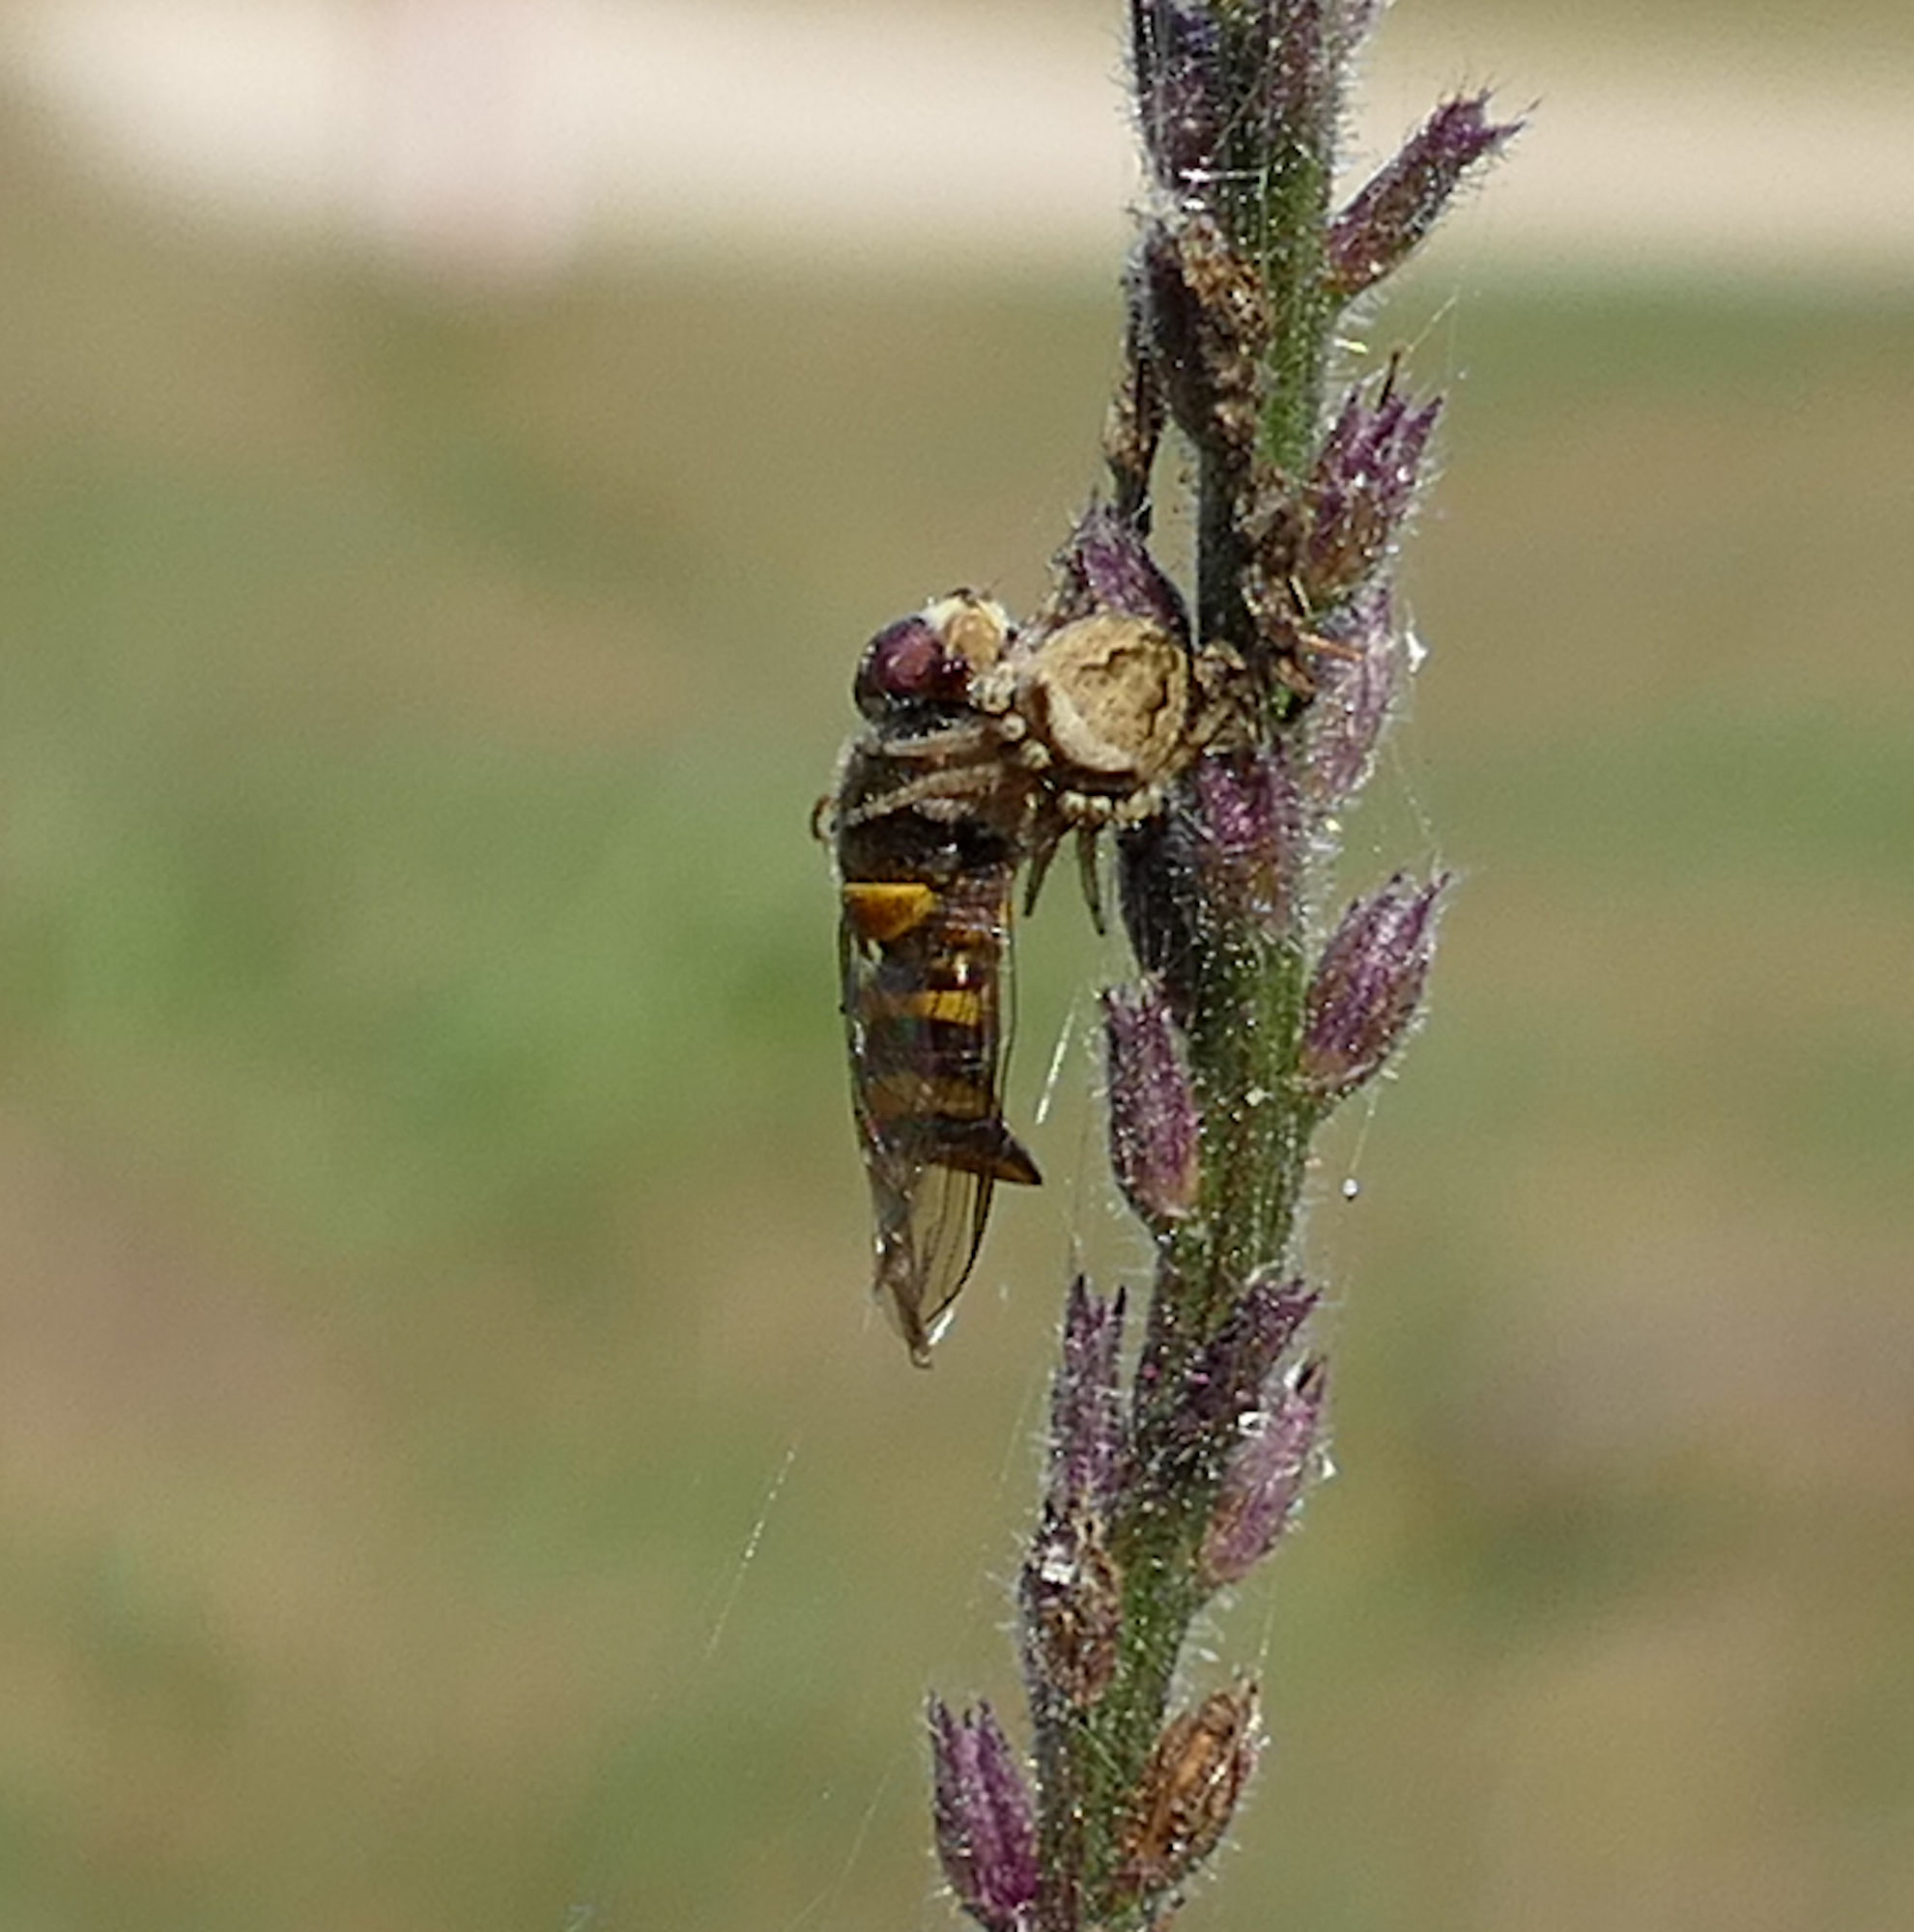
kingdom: Animalia
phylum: Arthropoda
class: Insecta
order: Diptera
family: Syrphidae
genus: Allograpta
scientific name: Allograpta obliqua
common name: Common oblique syrphid
